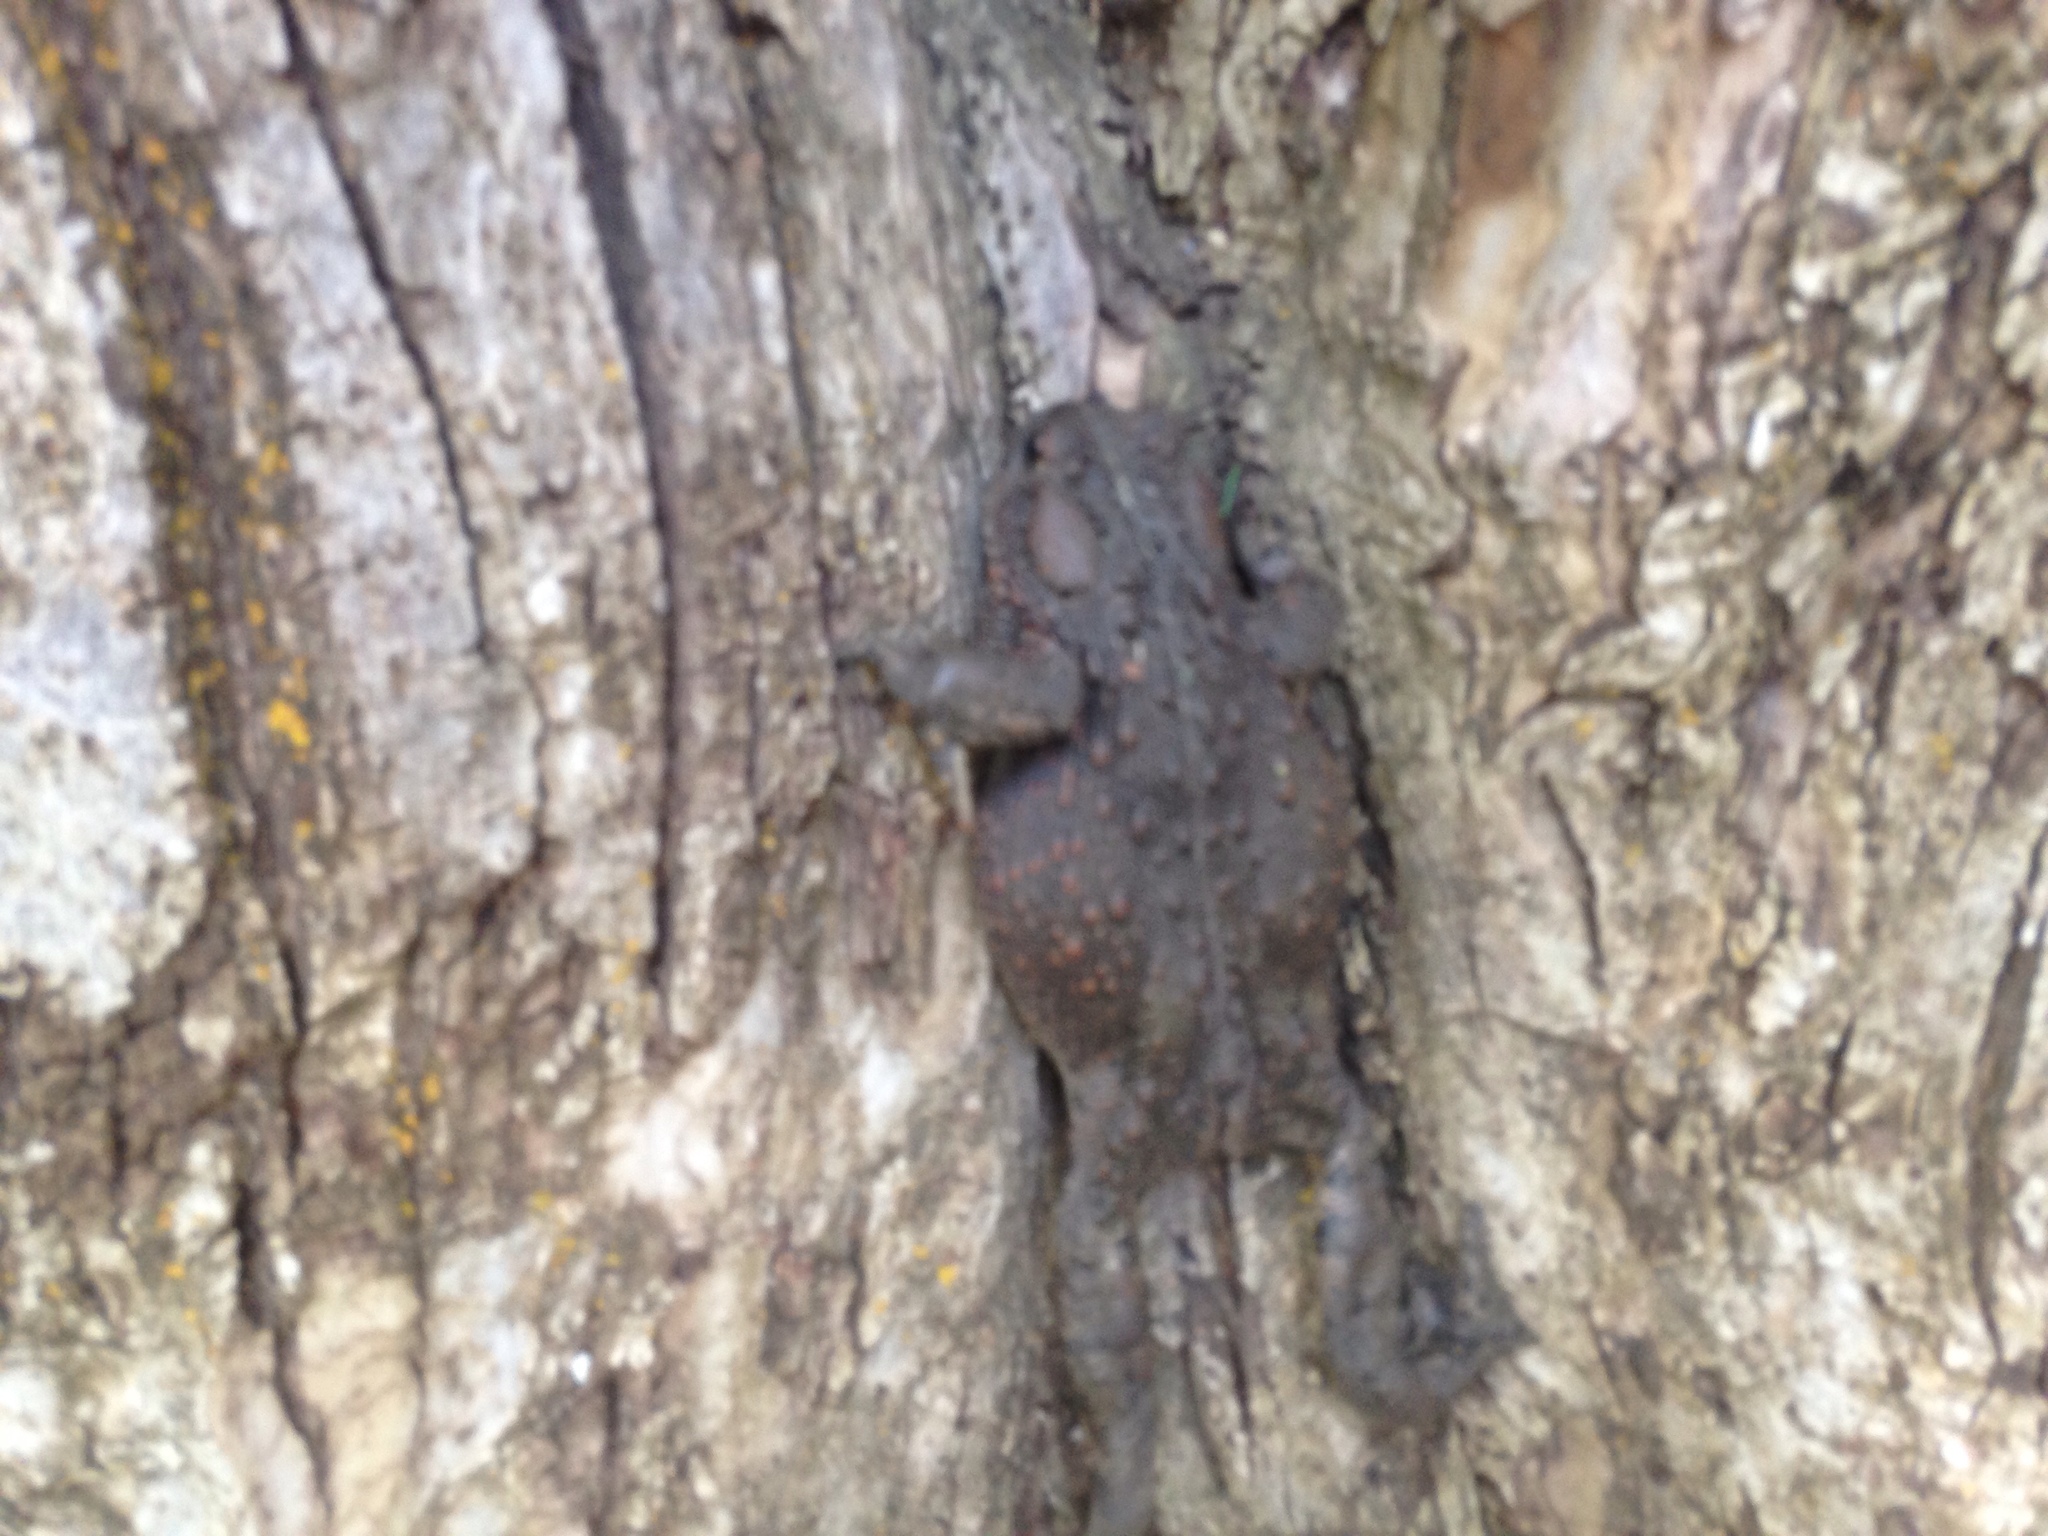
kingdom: Animalia
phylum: Chordata
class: Amphibia
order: Anura
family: Bufonidae
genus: Anaxyrus
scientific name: Anaxyrus boreas
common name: Western toad
